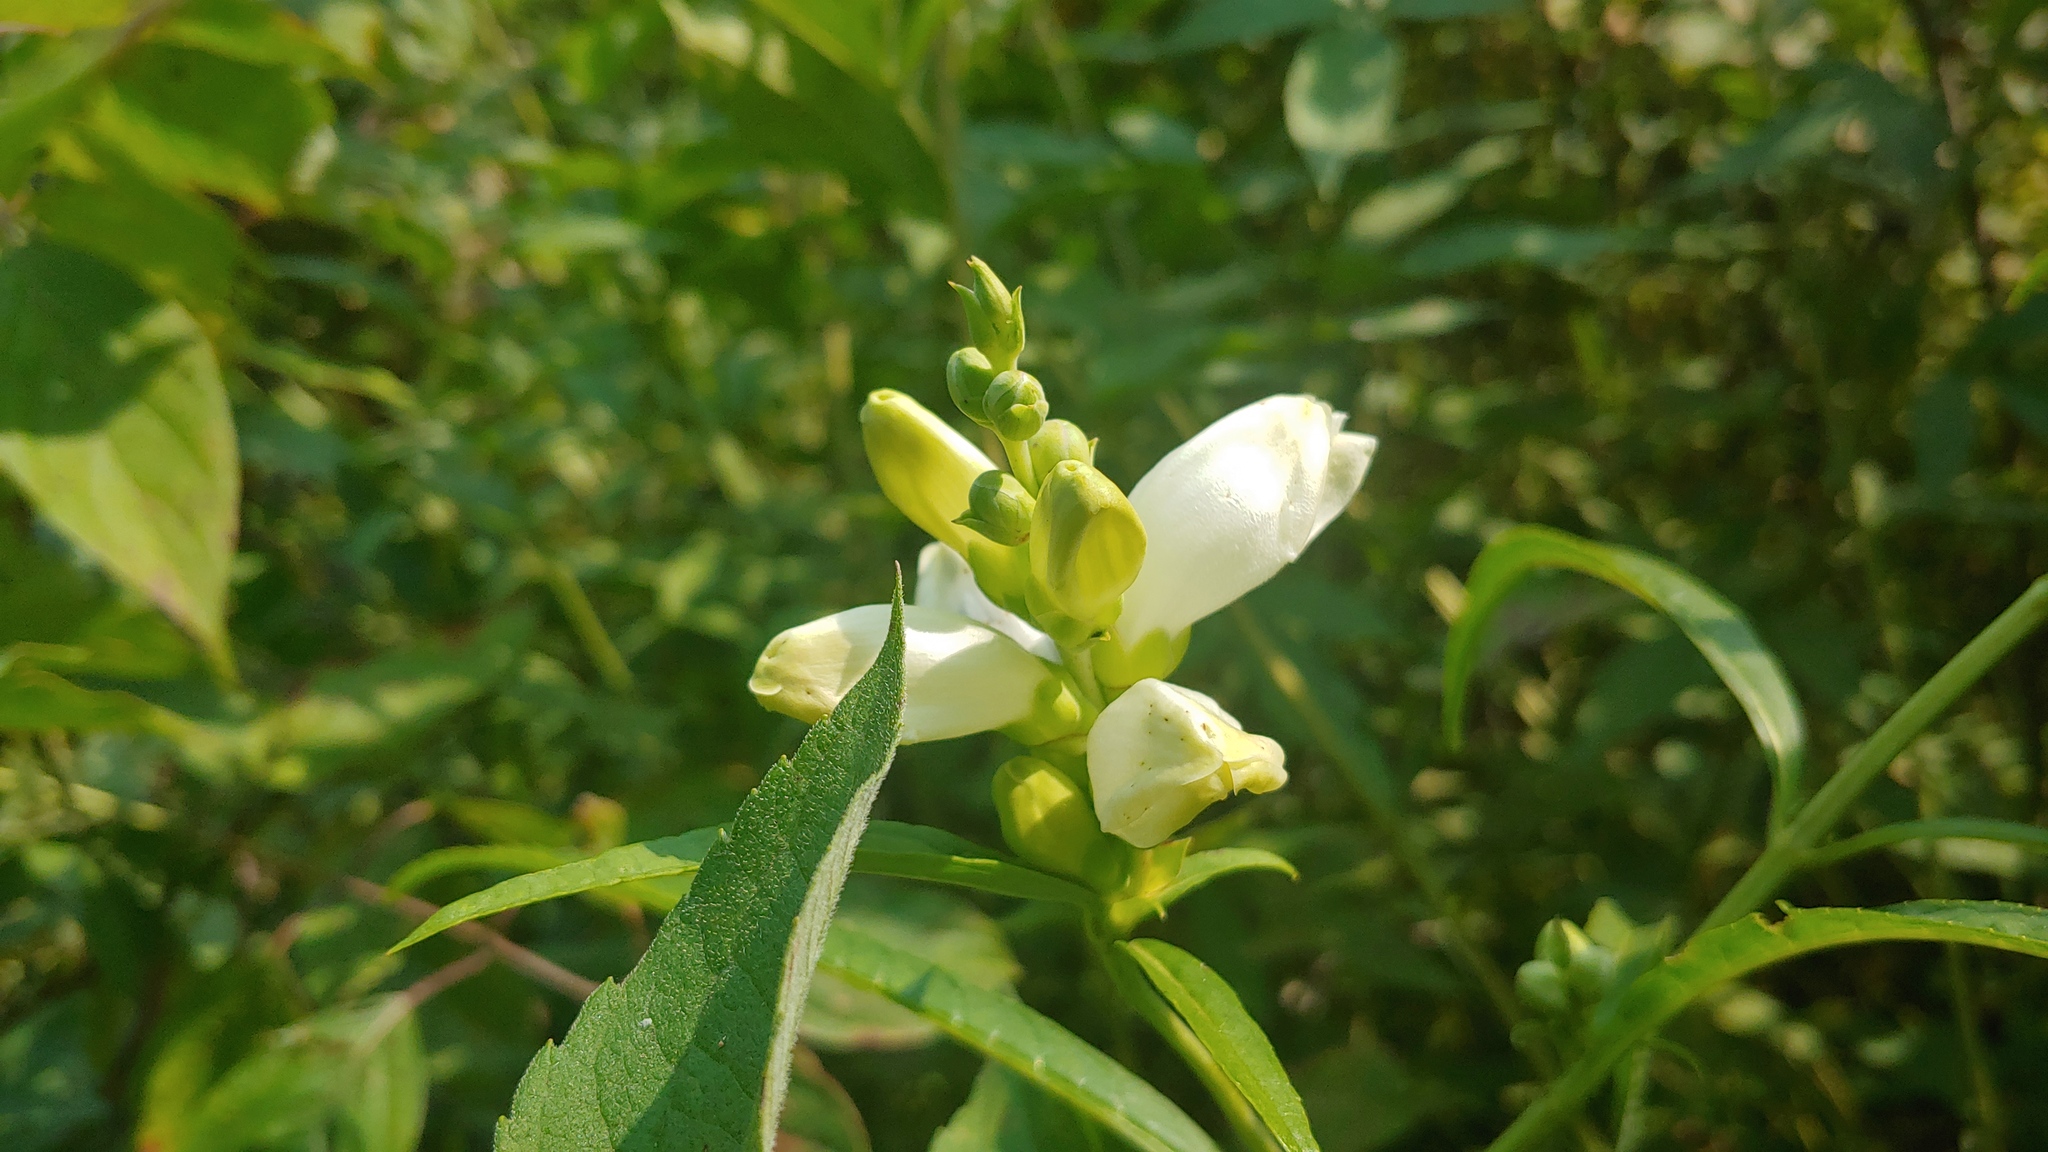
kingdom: Plantae
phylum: Tracheophyta
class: Magnoliopsida
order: Lamiales
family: Plantaginaceae
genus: Chelone
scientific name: Chelone glabra
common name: Snakehead
